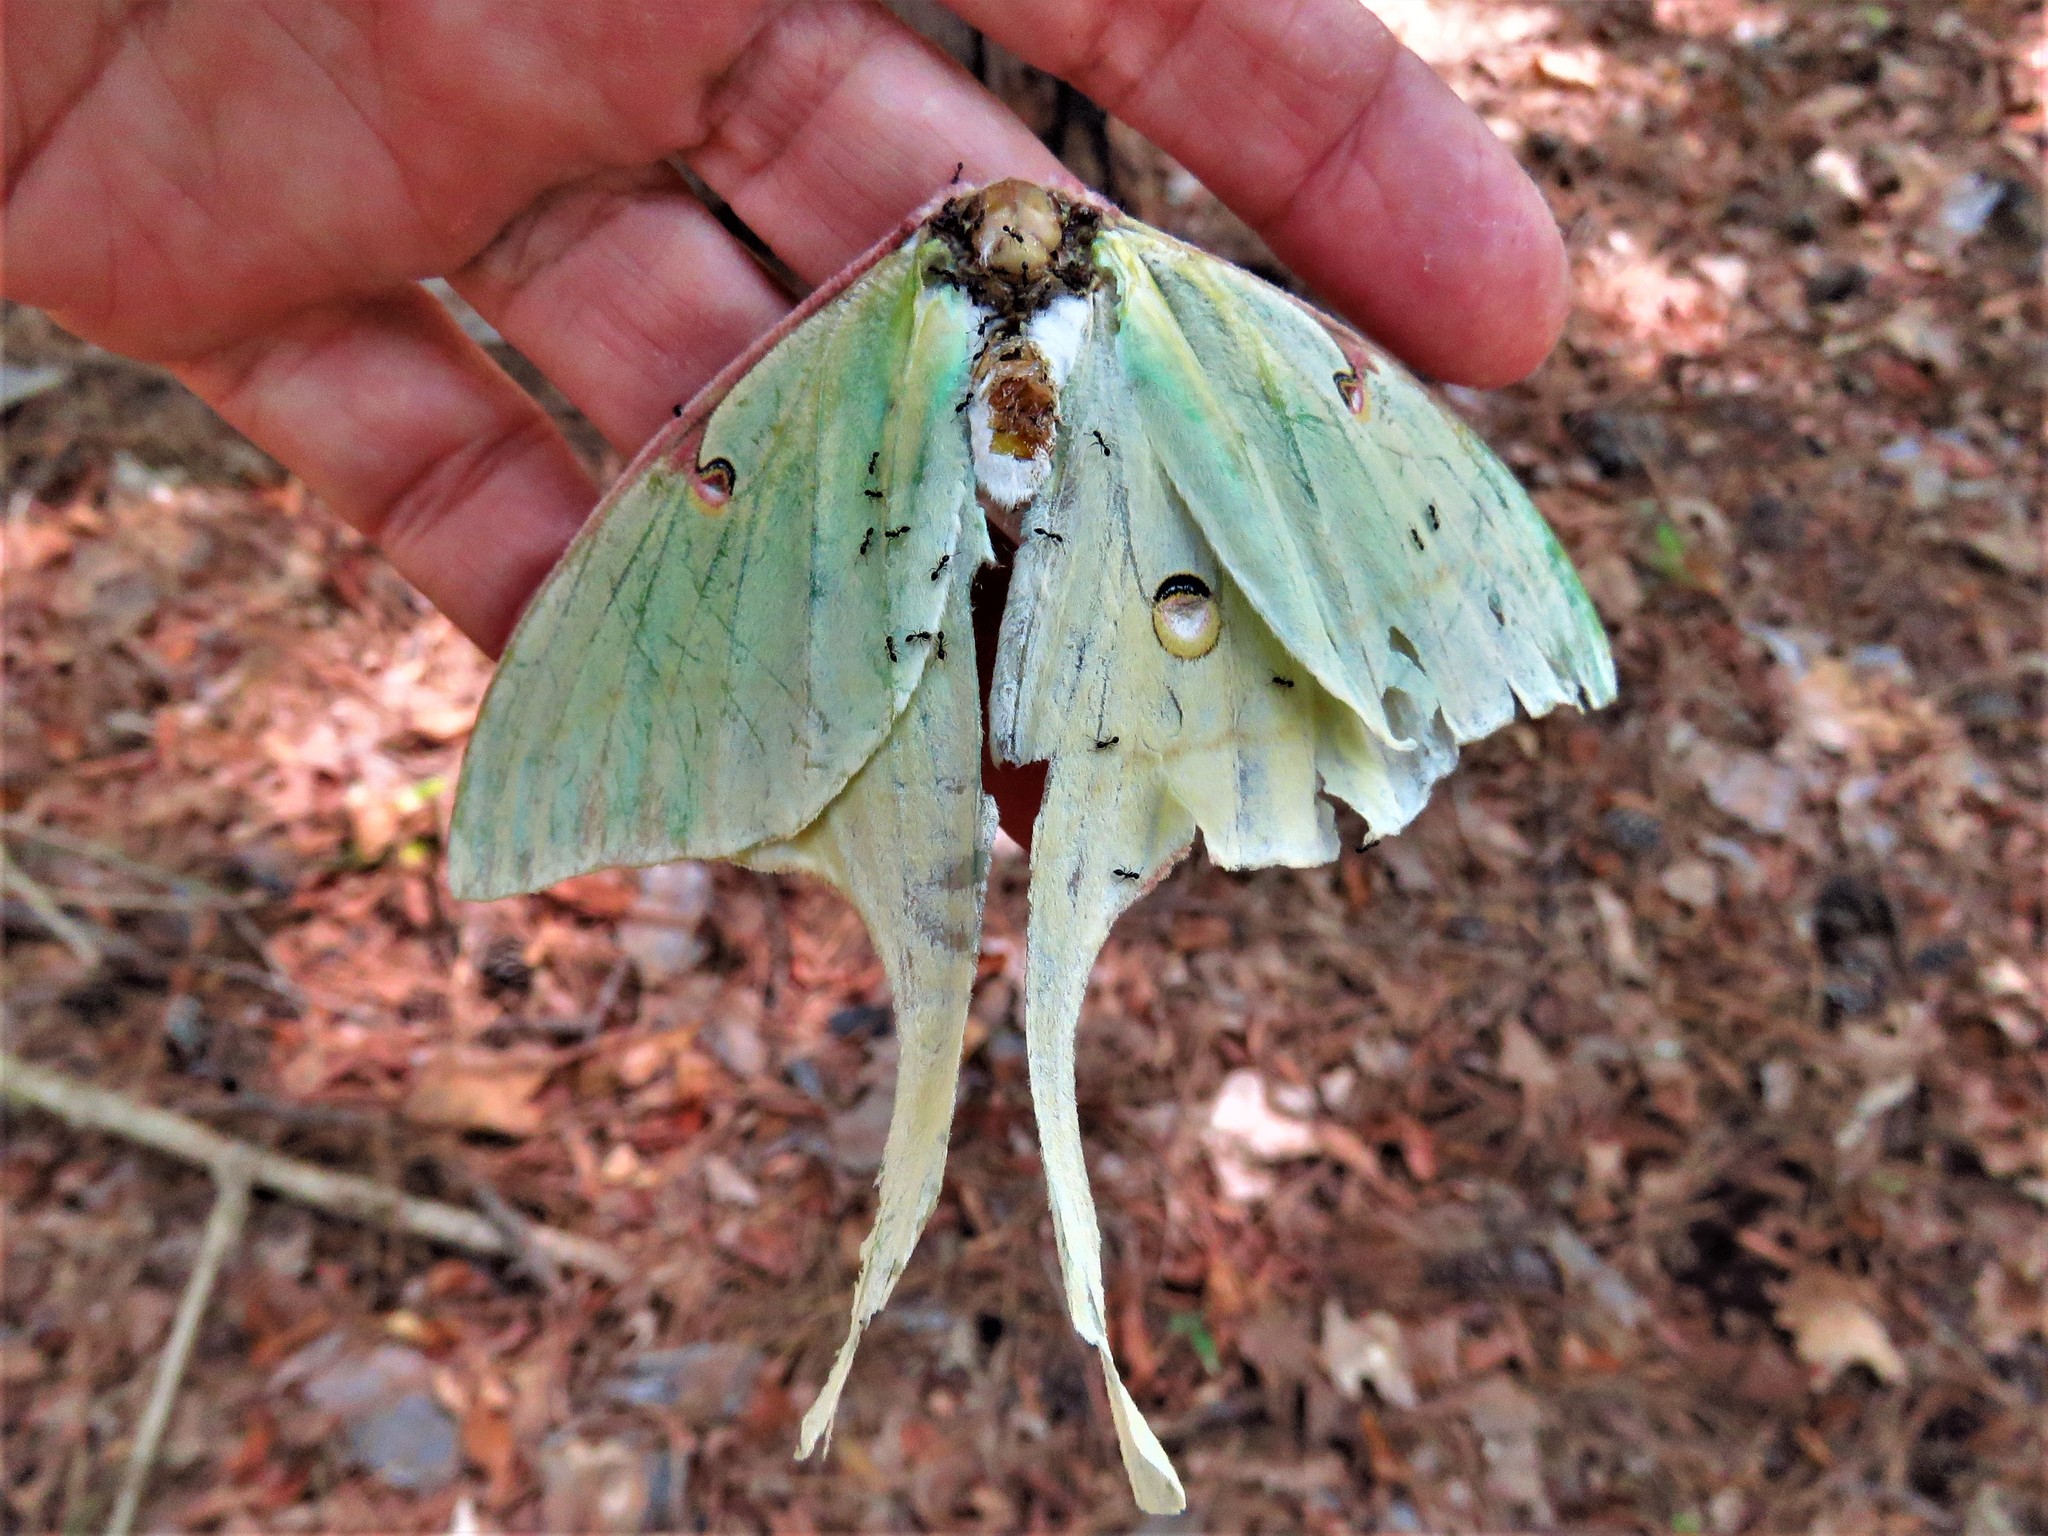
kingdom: Animalia
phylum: Arthropoda
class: Insecta
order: Lepidoptera
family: Saturniidae
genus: Actias
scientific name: Actias luna
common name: Luna moth
